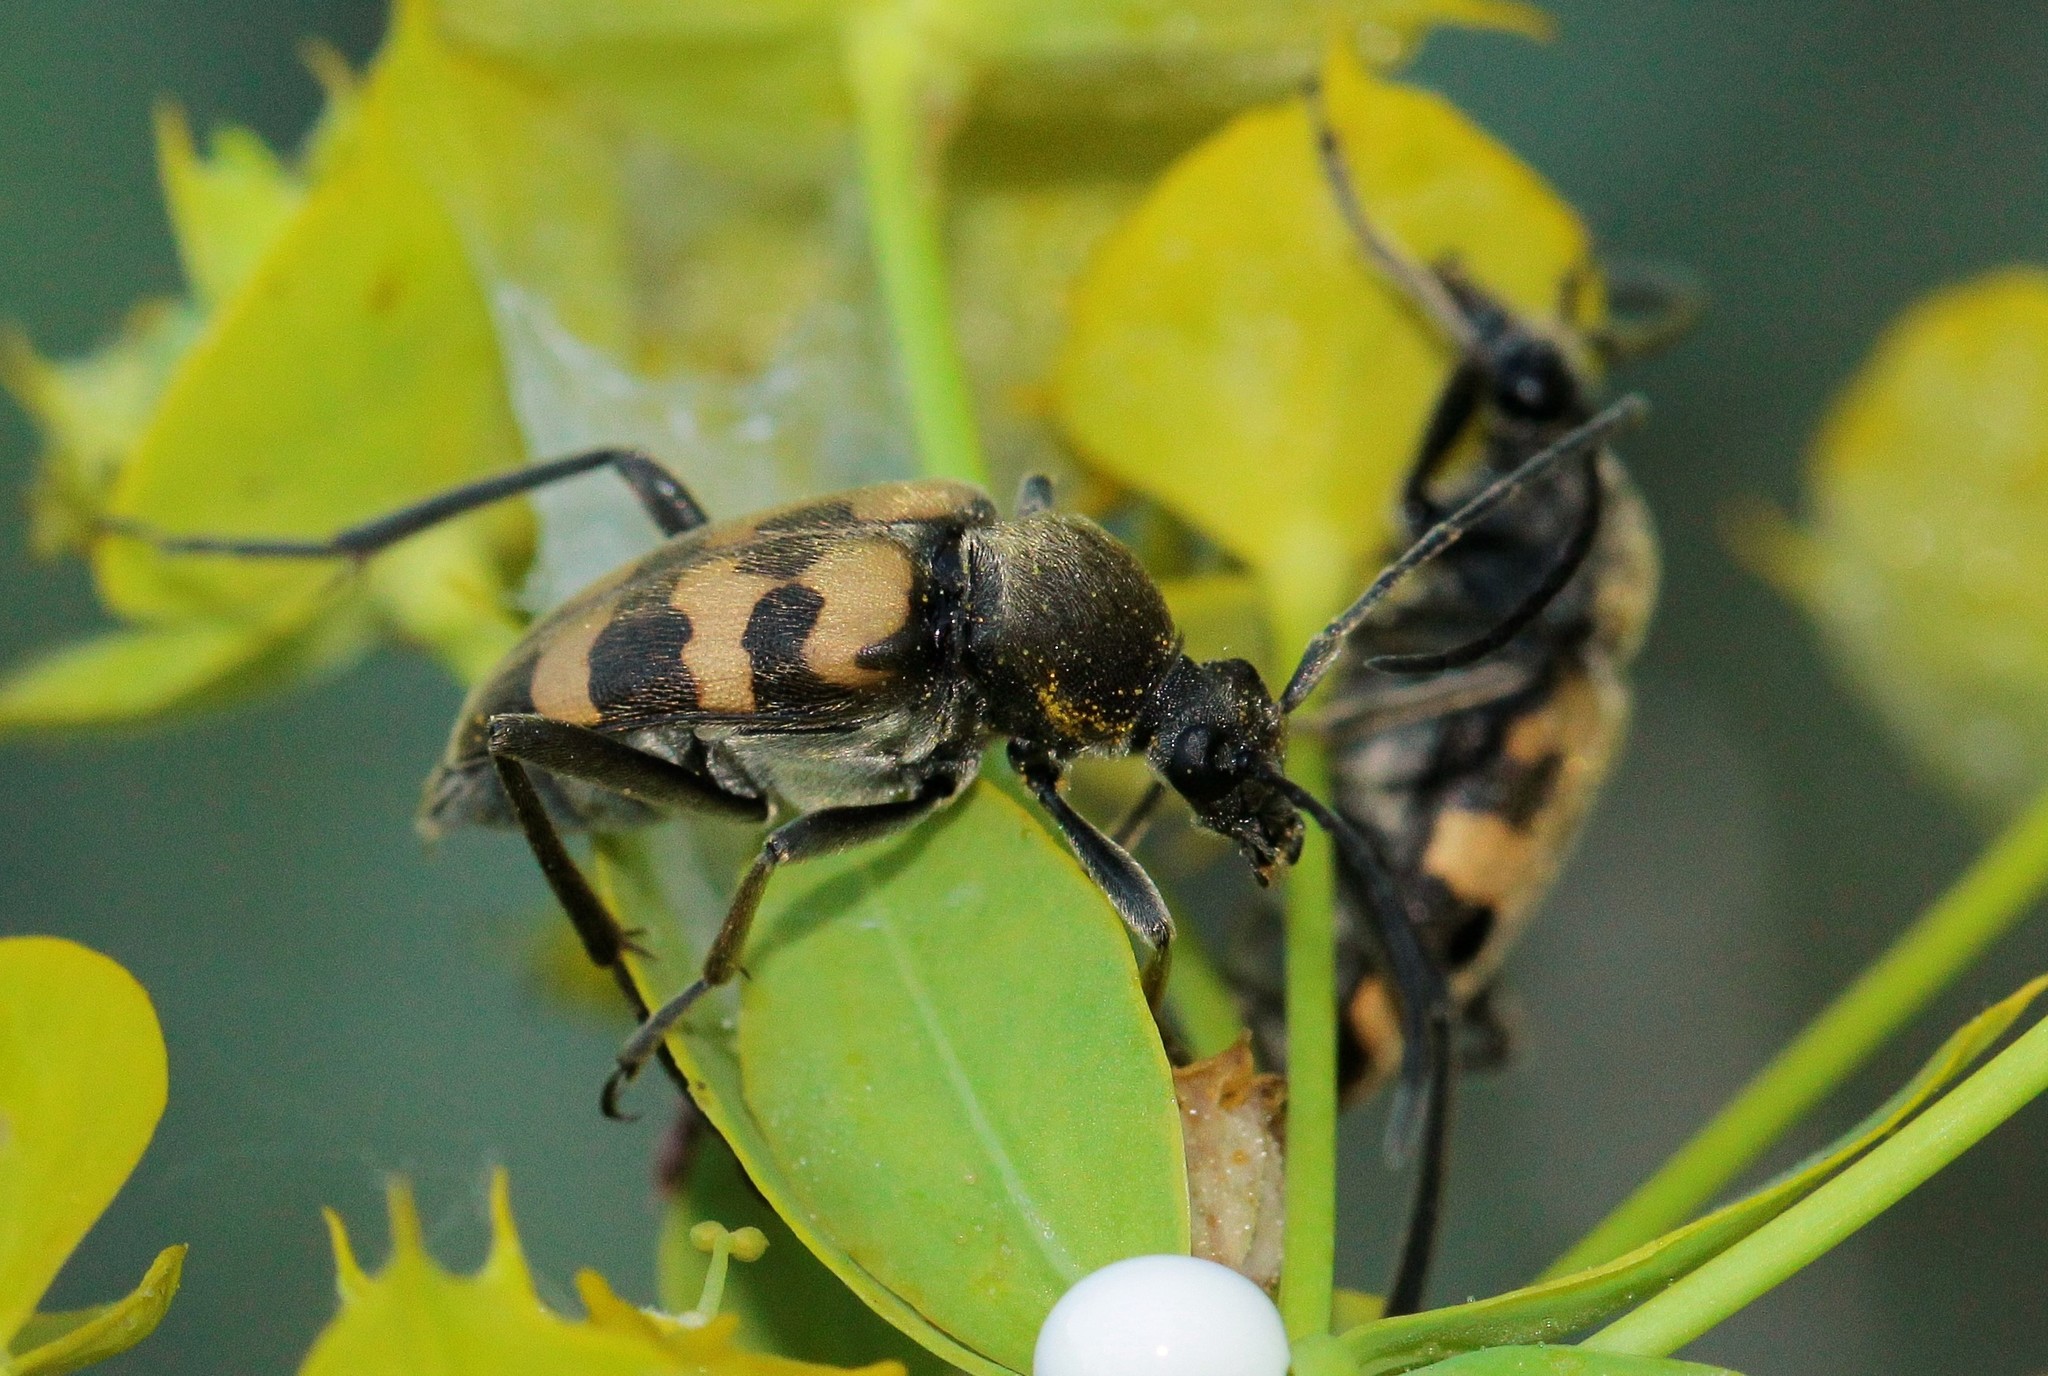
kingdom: Animalia
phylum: Arthropoda
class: Insecta
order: Coleoptera
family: Cerambycidae
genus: Pachytodes
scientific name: Pachytodes
